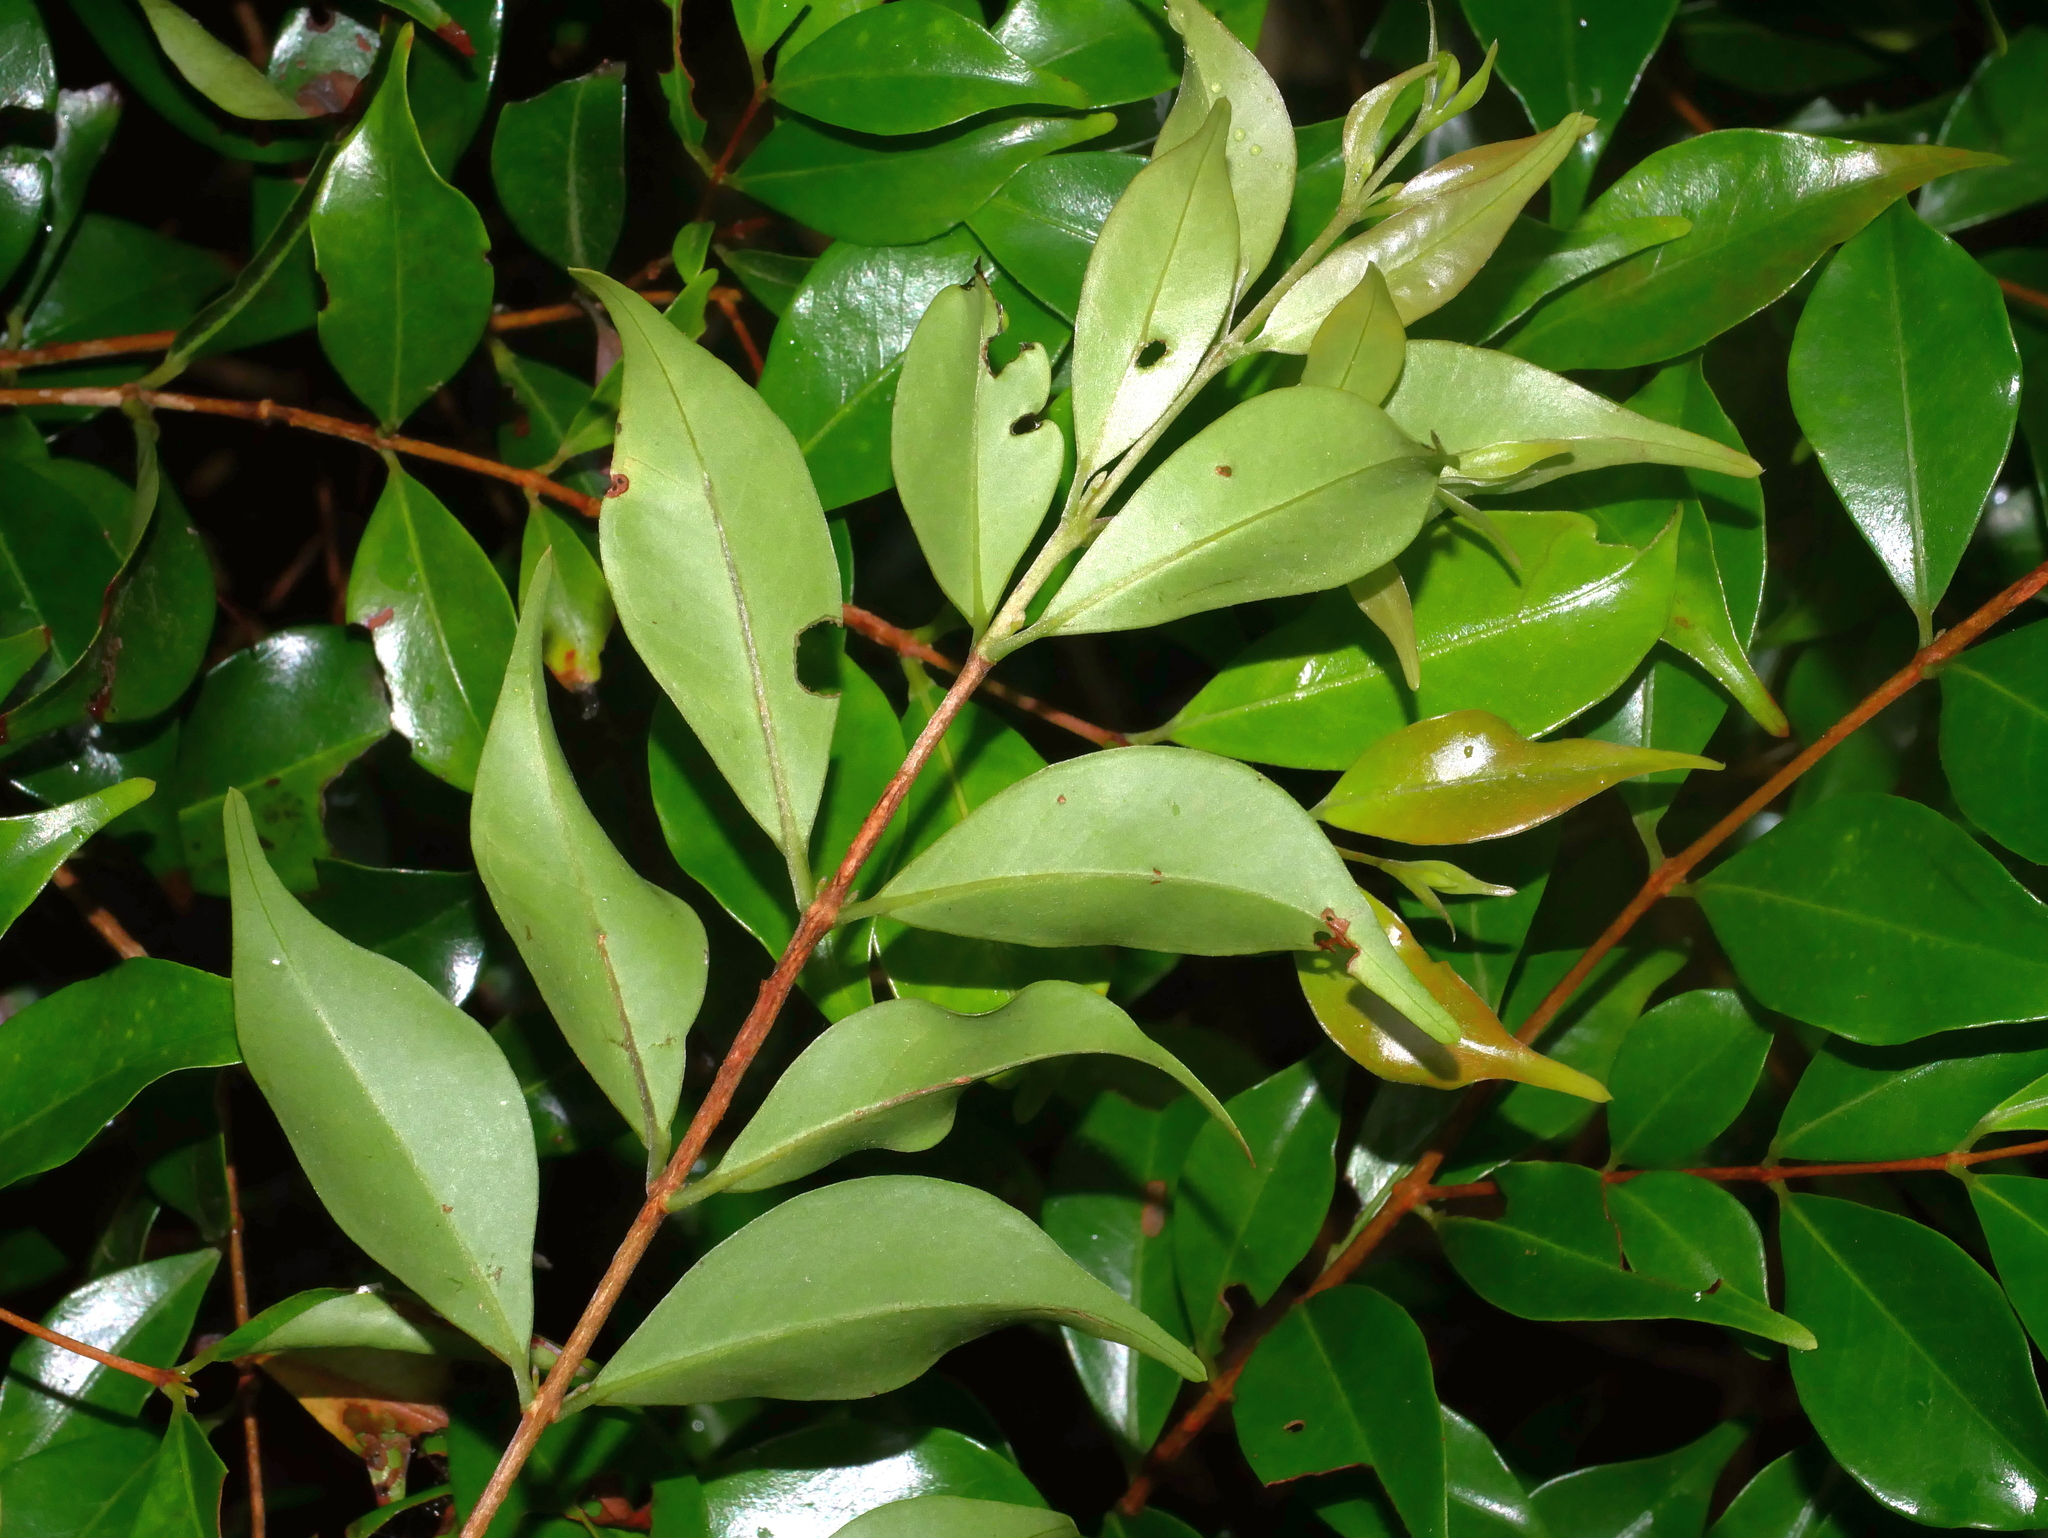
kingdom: Plantae
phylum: Tracheophyta
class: Magnoliopsida
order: Myrtales
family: Myrtaceae
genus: Decaspermum
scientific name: Decaspermum gracilentum
